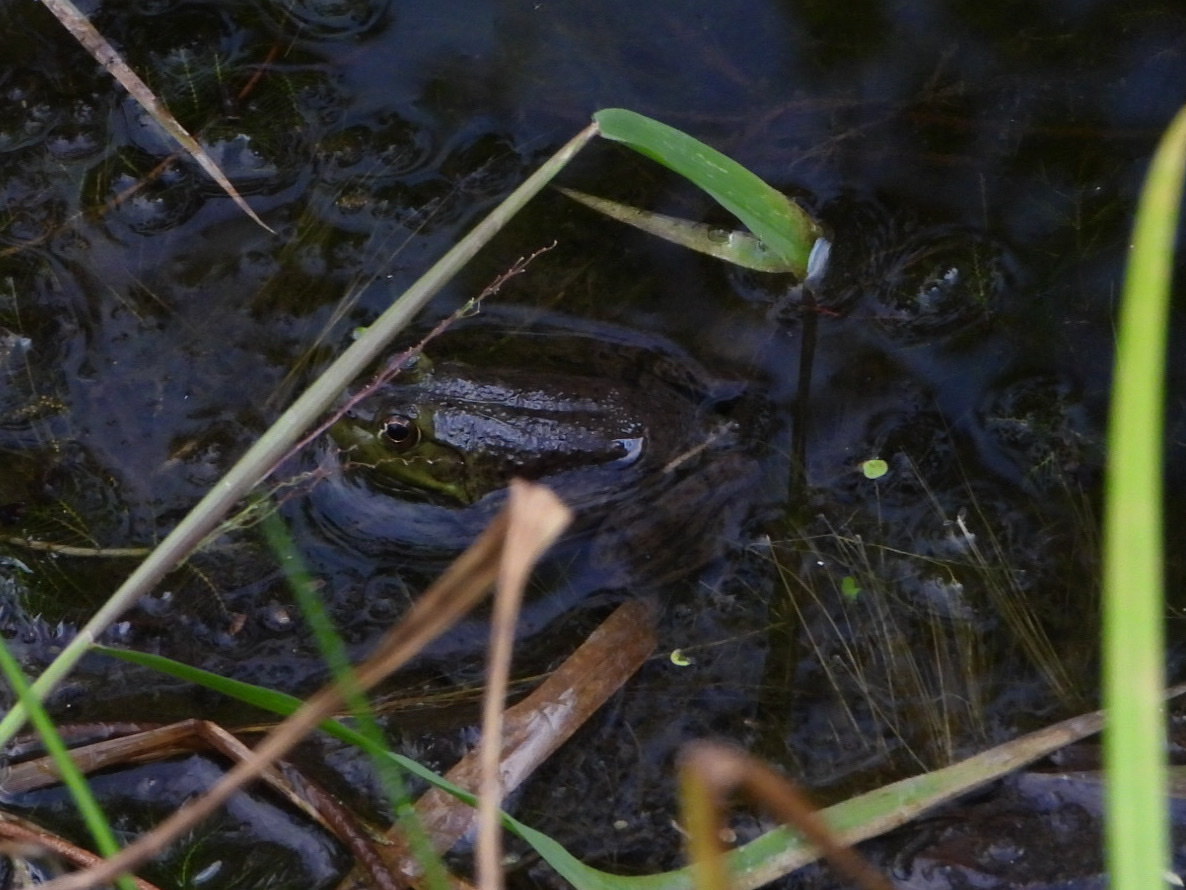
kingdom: Animalia
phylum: Chordata
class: Amphibia
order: Anura
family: Ranidae
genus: Lithobates
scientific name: Lithobates catesbeianus
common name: American bullfrog
